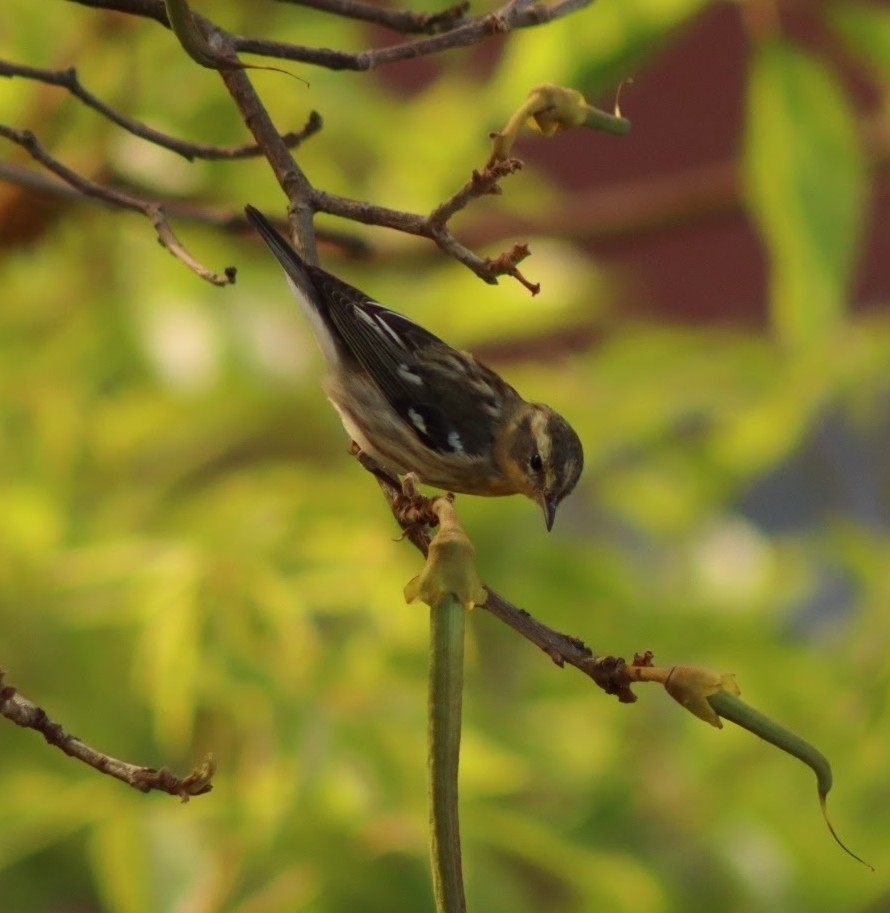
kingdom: Animalia
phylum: Chordata
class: Aves
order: Passeriformes
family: Parulidae
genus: Setophaga
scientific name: Setophaga fusca
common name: Blackburnian warbler
